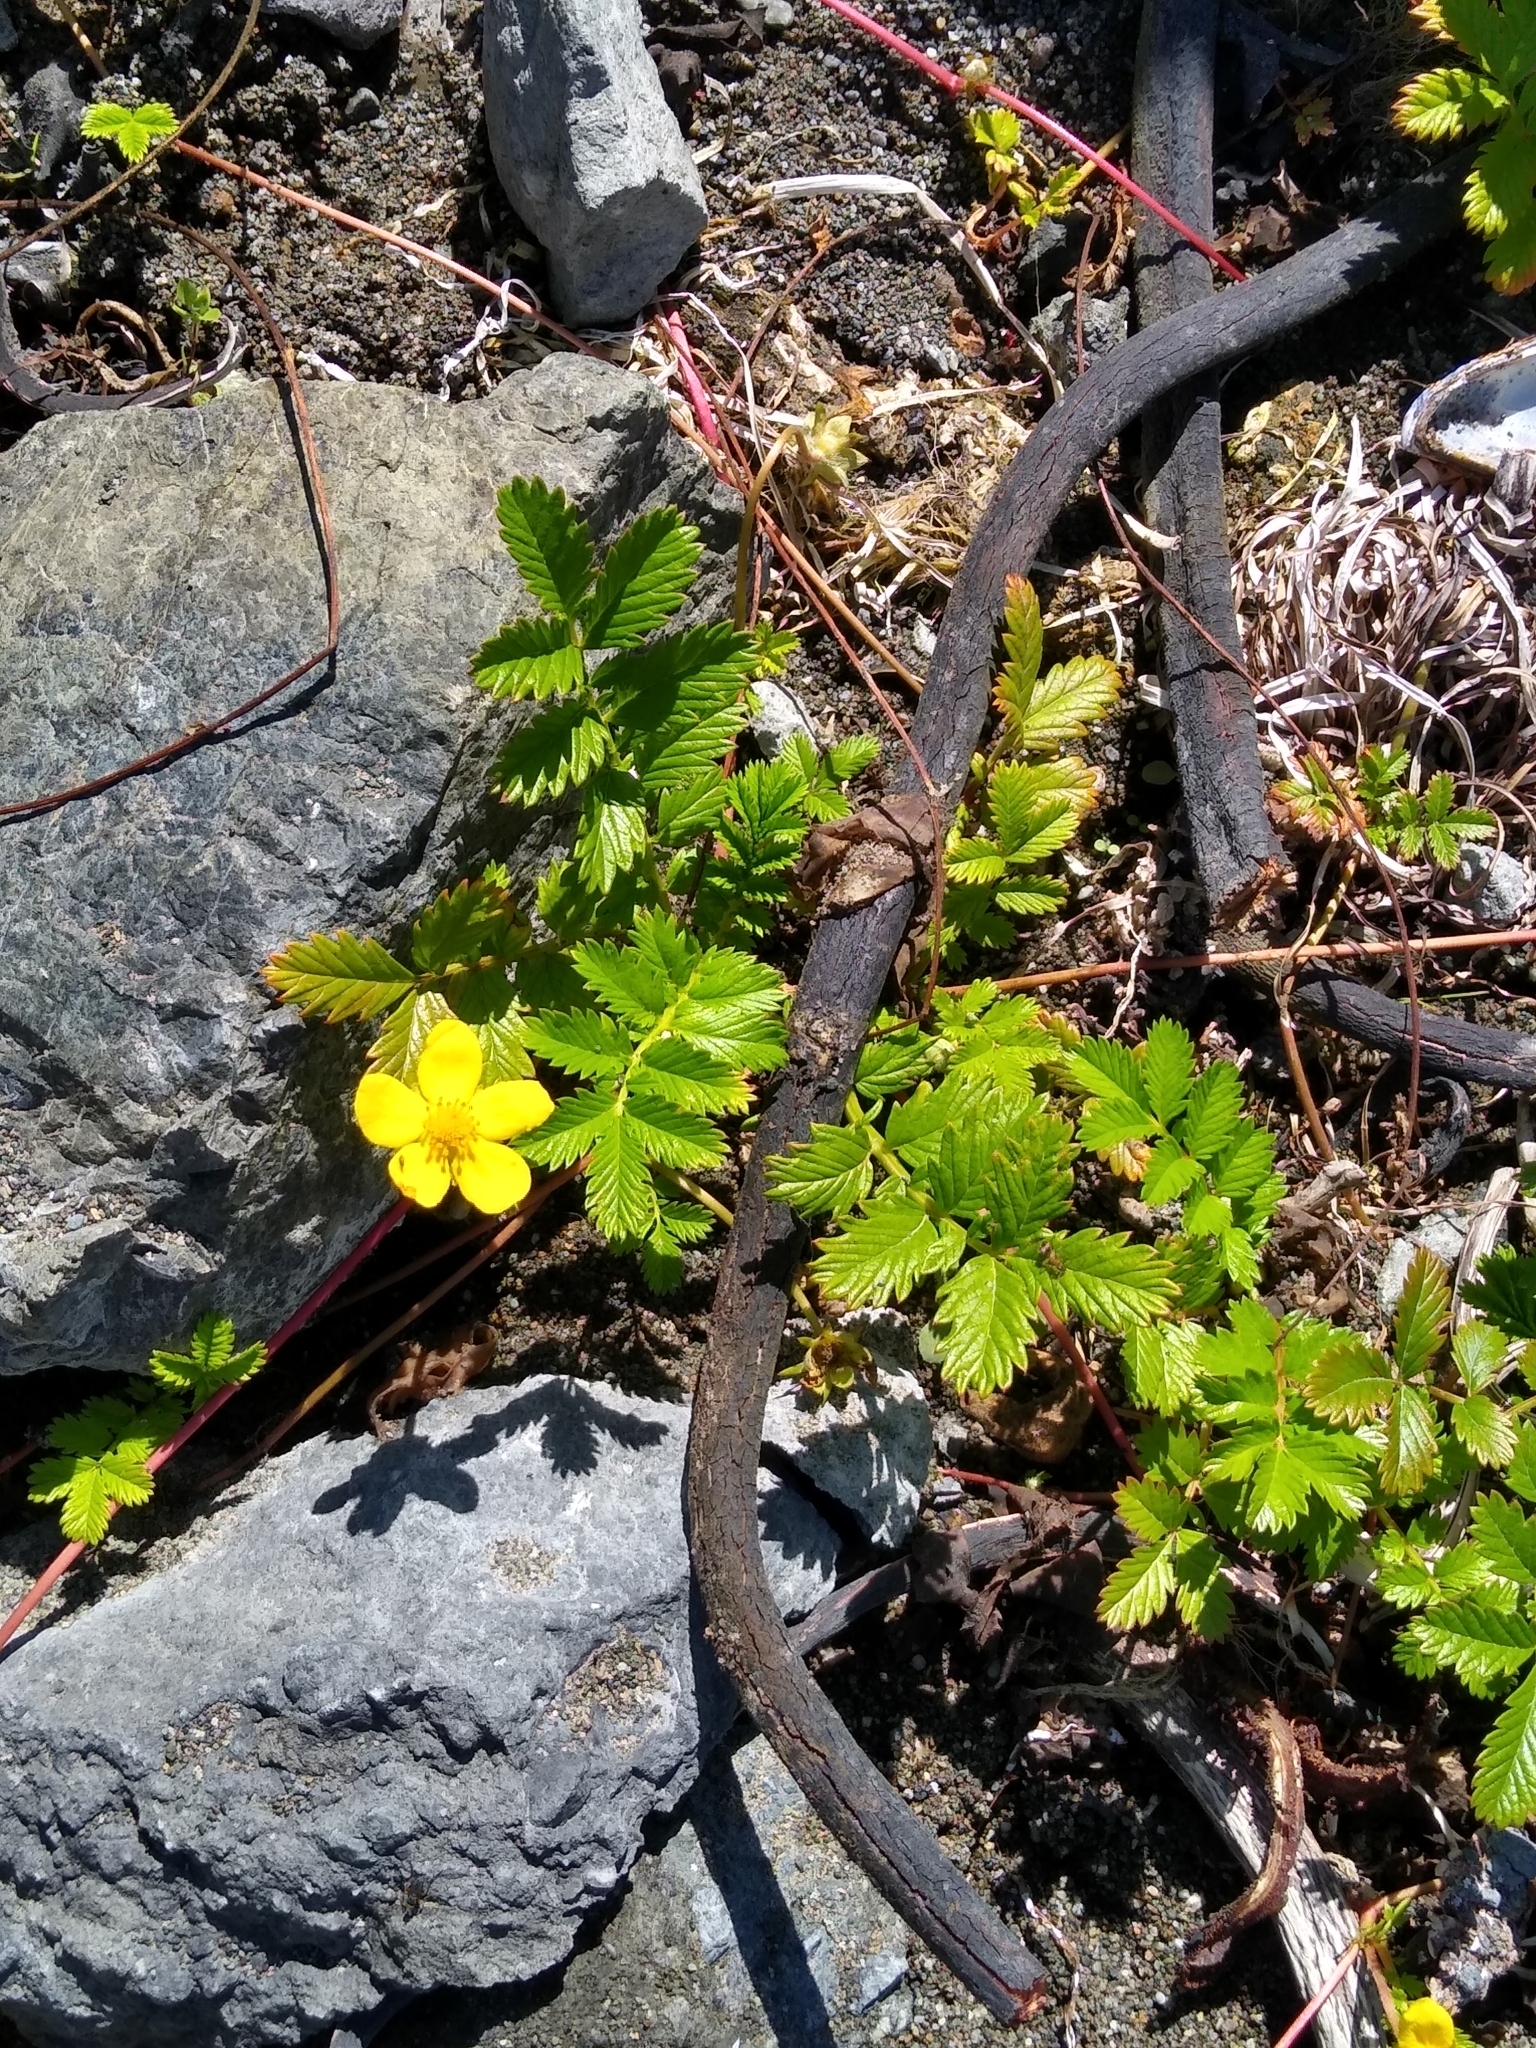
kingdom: Plantae
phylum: Tracheophyta
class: Magnoliopsida
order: Rosales
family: Rosaceae
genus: Argentina
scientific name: Argentina anserina
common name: Common silverweed
